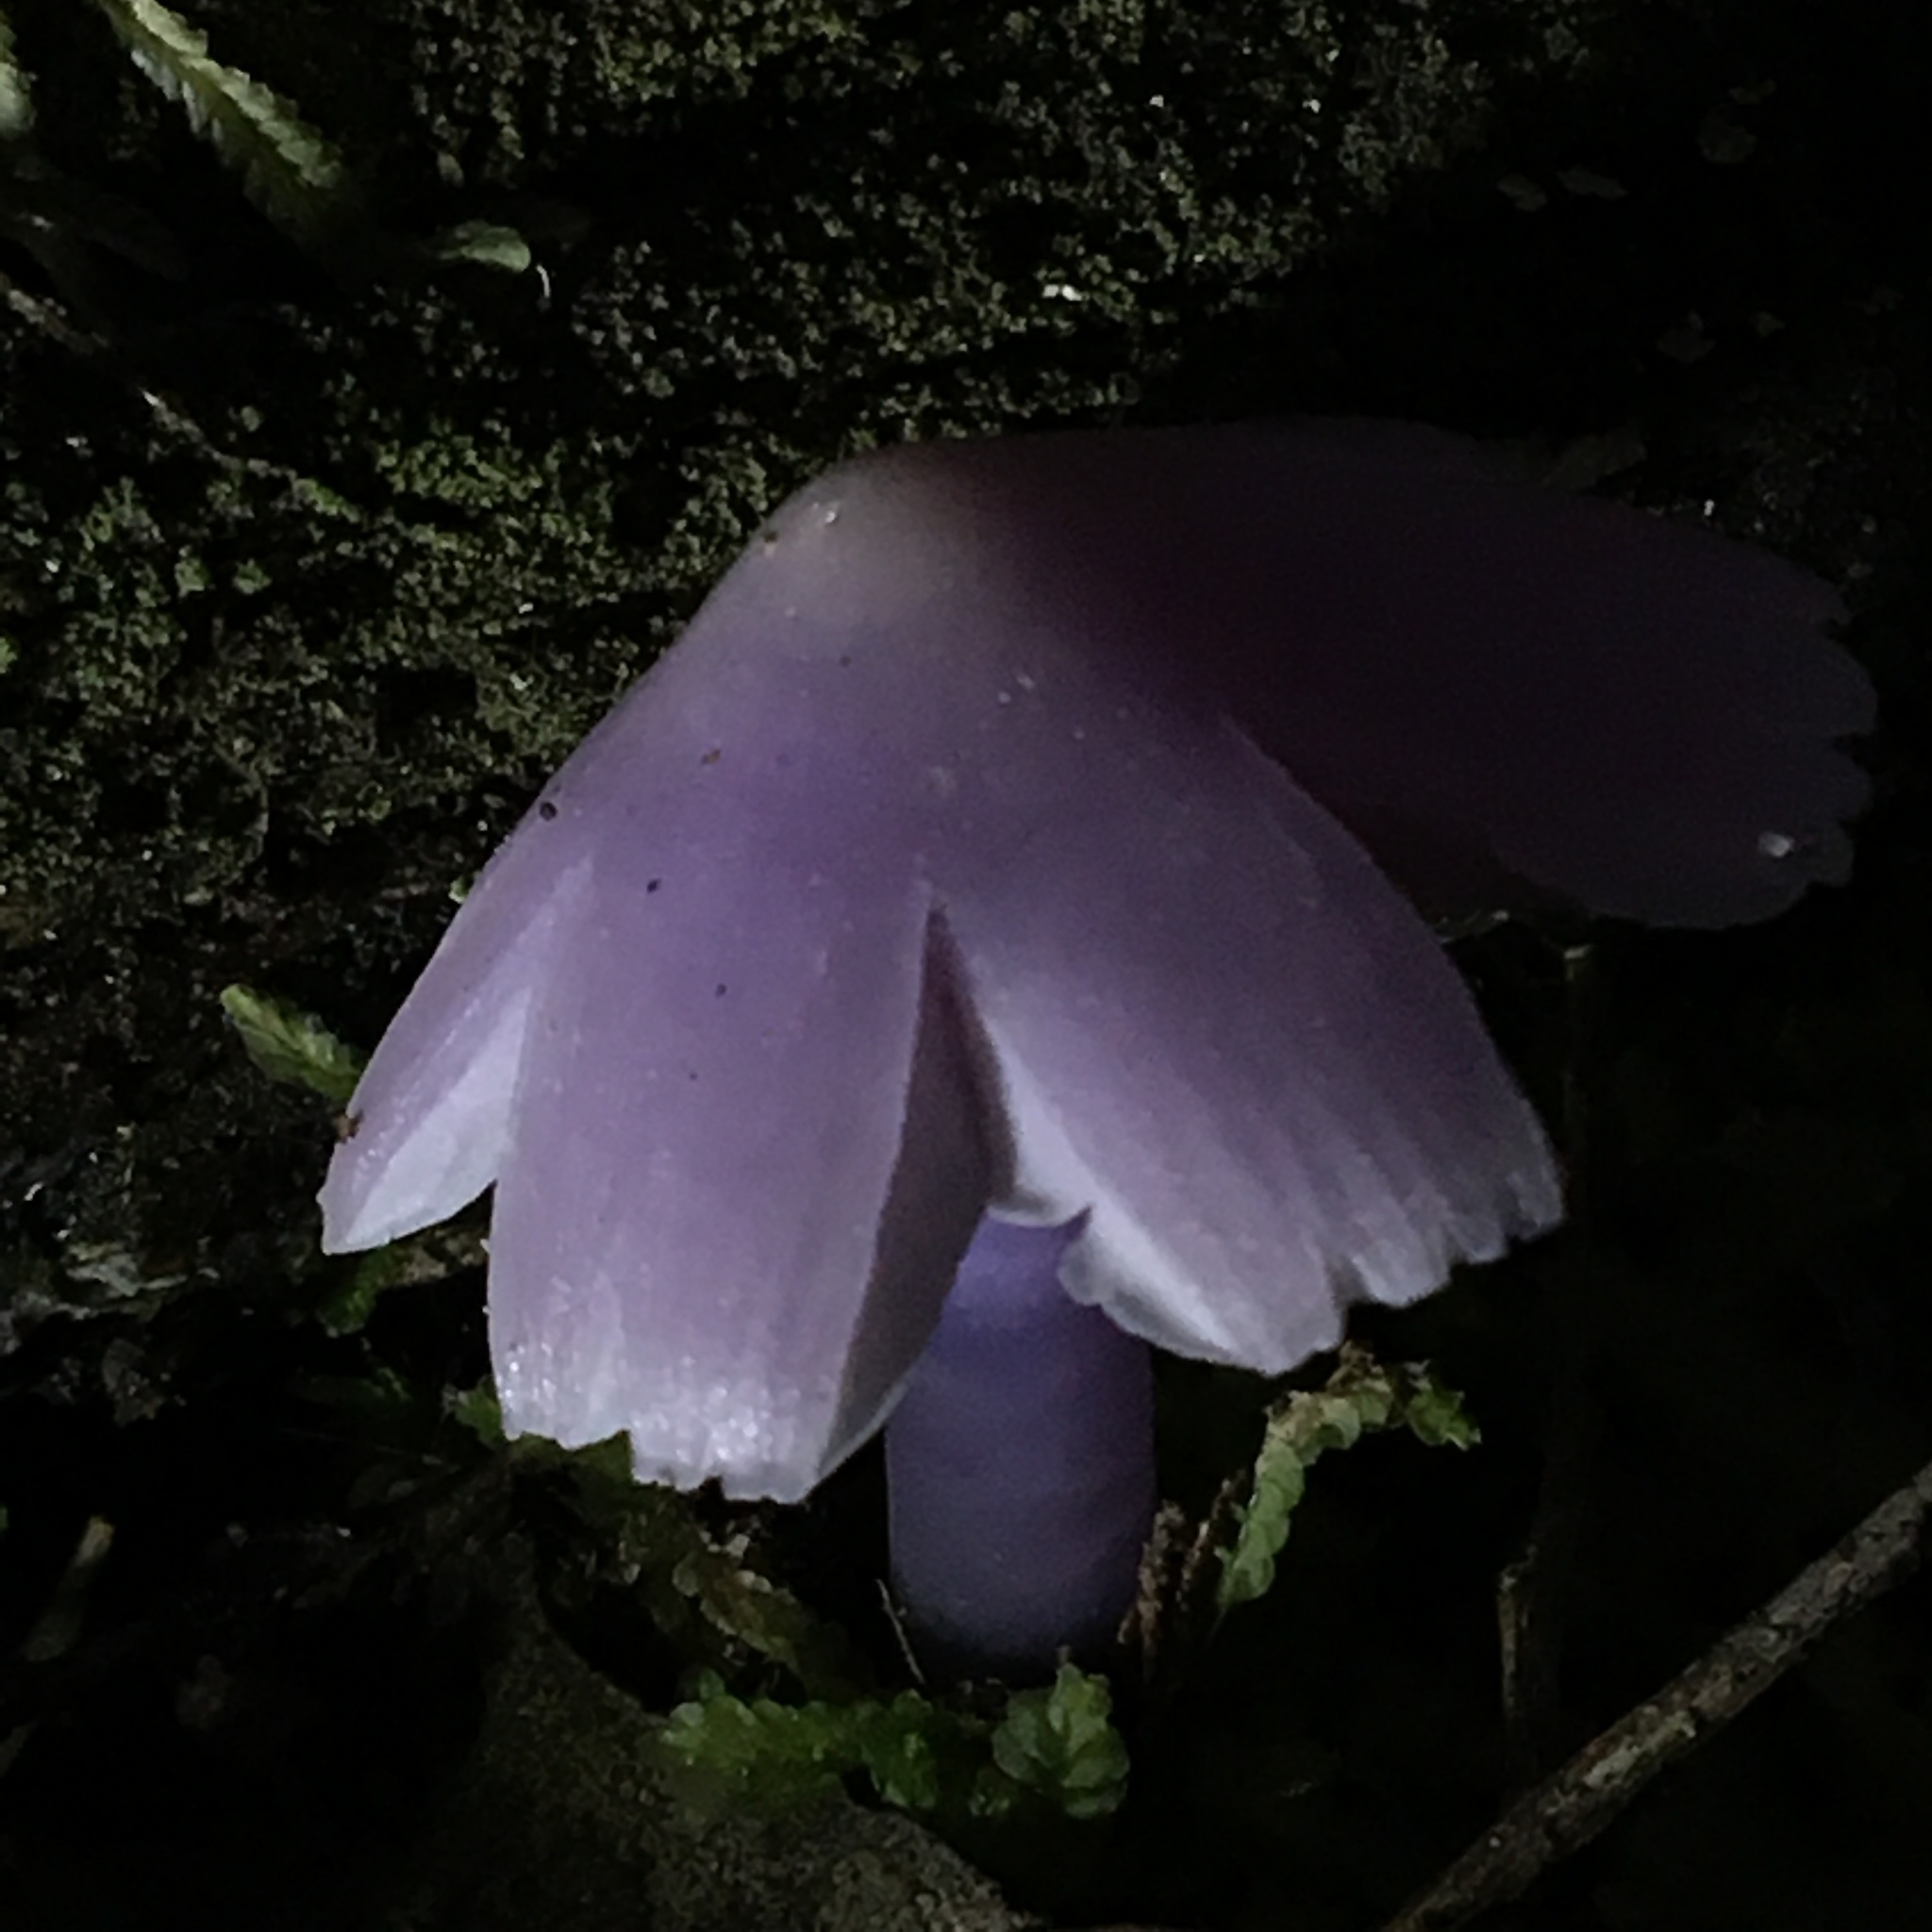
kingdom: Fungi
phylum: Basidiomycota
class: Agaricomycetes
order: Agaricales
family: Hygrophoraceae
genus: Porpolomopsis
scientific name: Porpolomopsis lewelliniae
